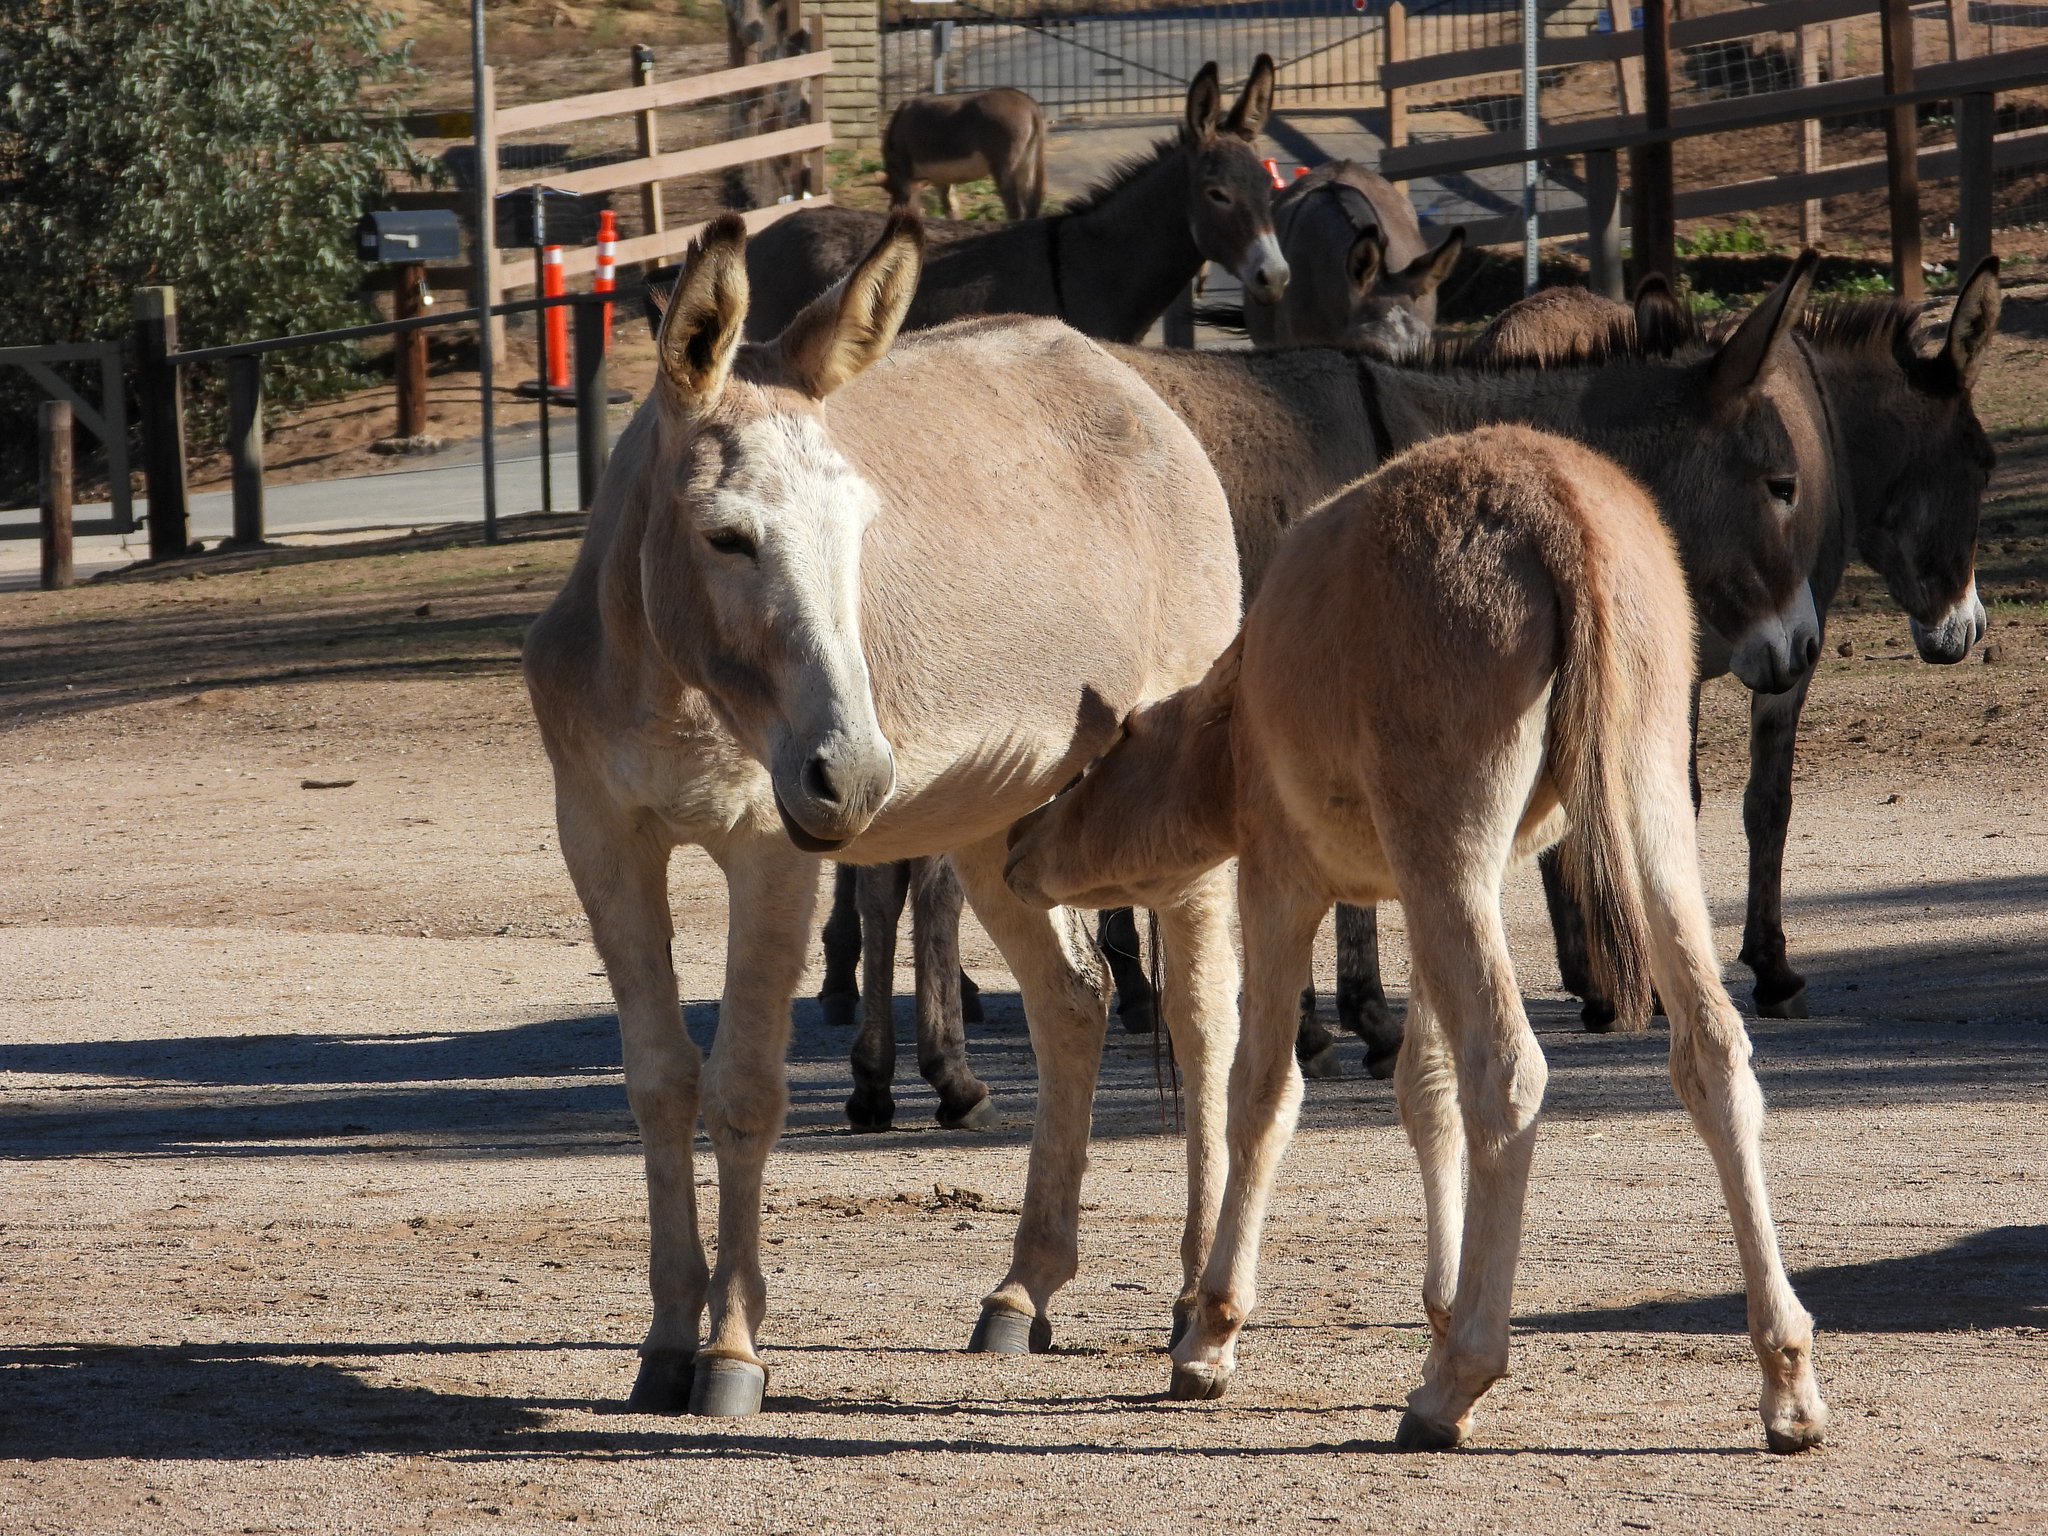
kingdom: Animalia
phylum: Chordata
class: Mammalia
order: Perissodactyla
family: Equidae
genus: Equus
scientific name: Equus asinus
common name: Ass
